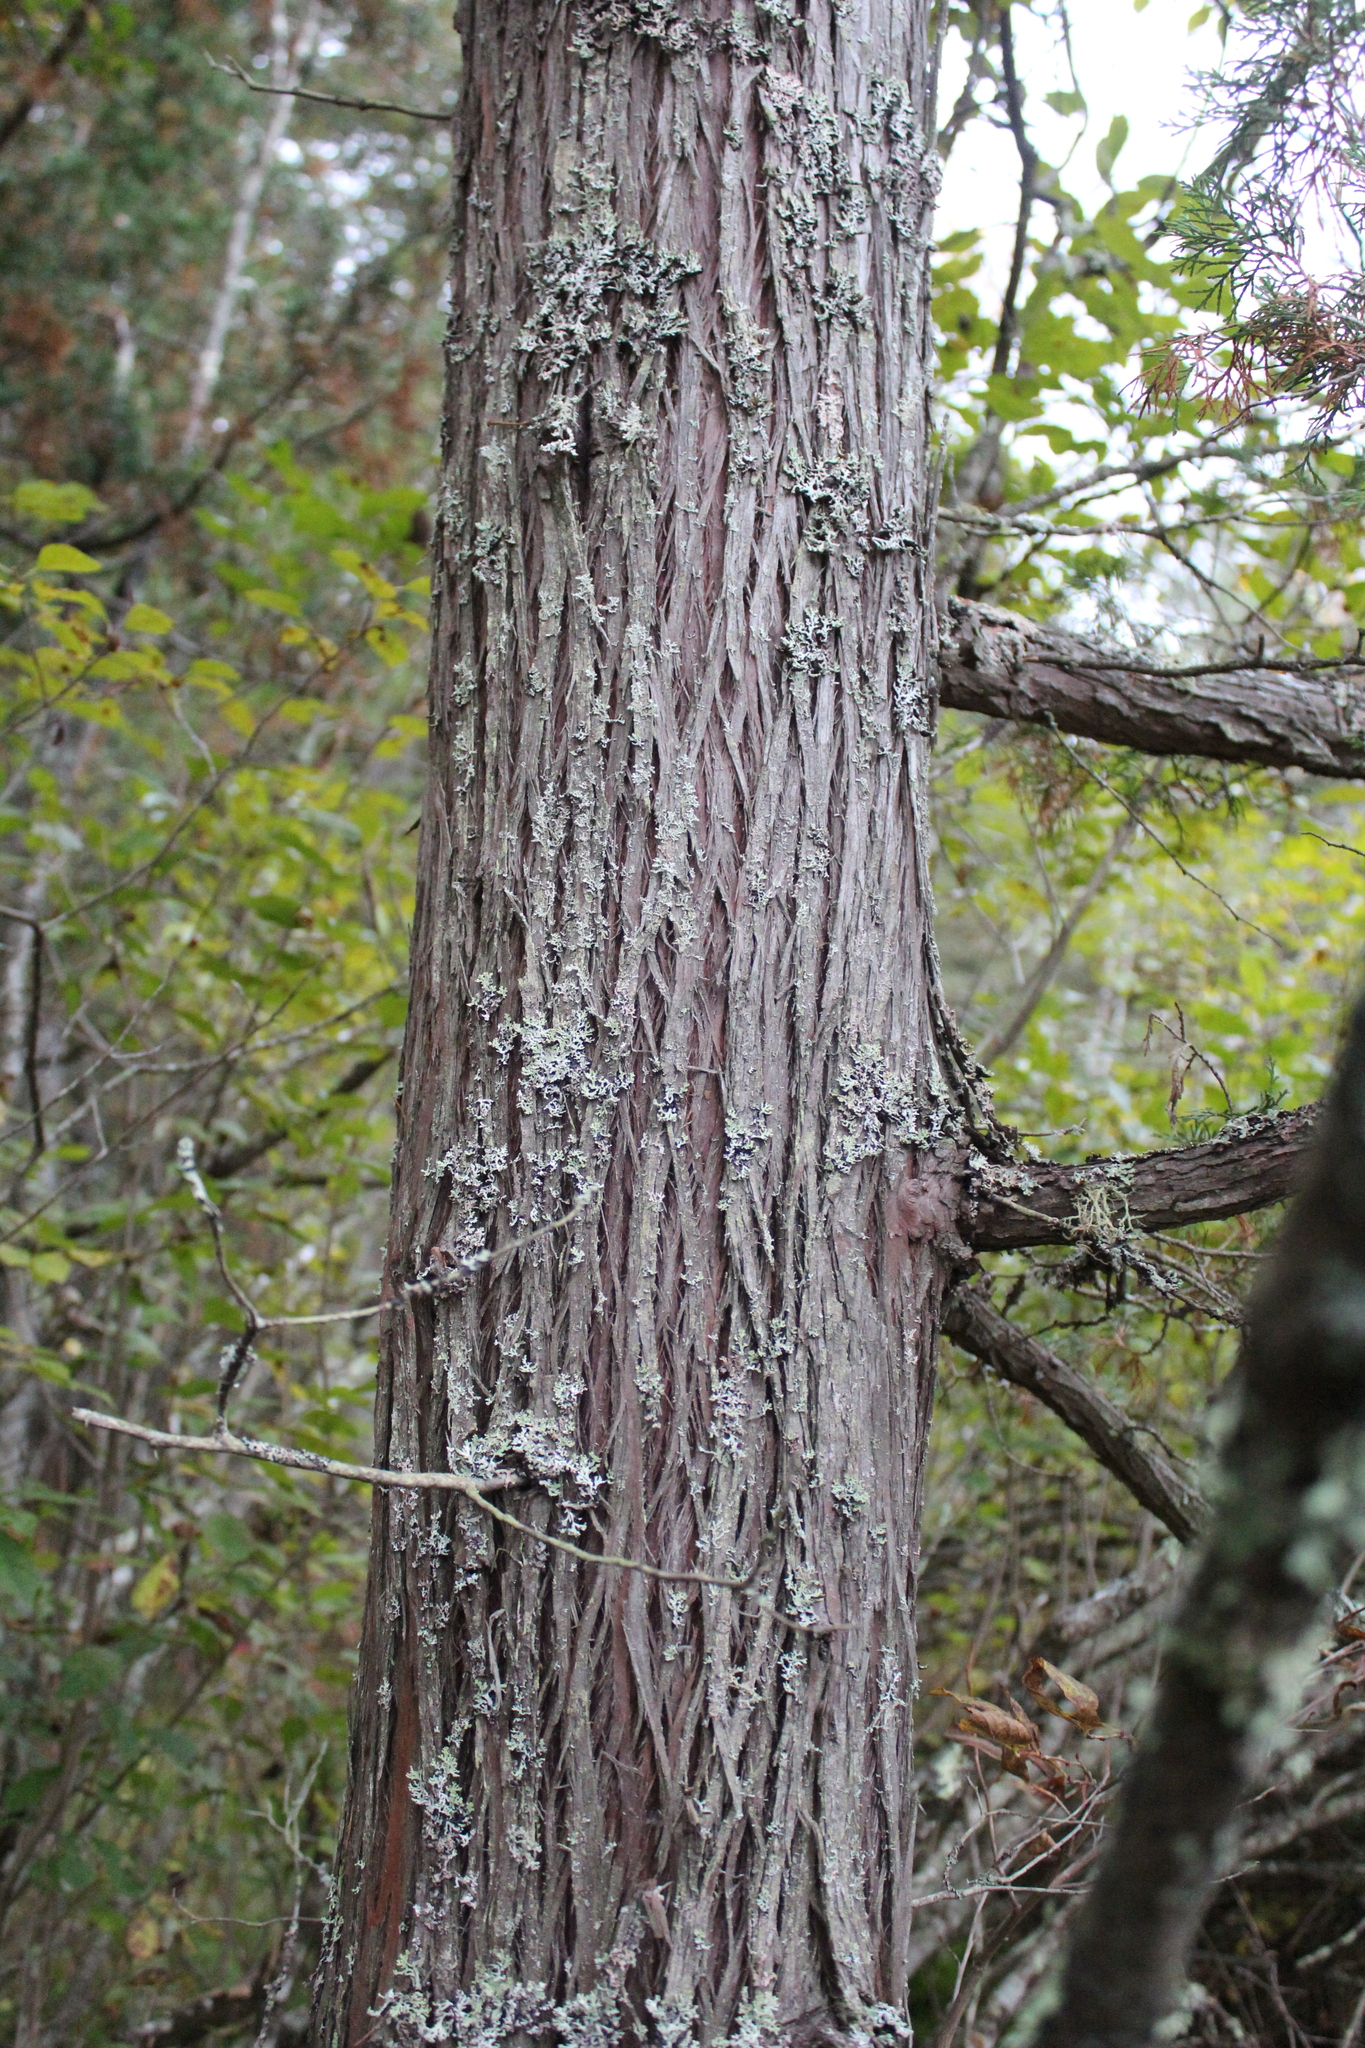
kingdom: Plantae
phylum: Tracheophyta
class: Pinopsida
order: Pinales
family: Cupressaceae
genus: Chamaecyparis
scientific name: Chamaecyparis thyoides
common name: Atlantic white cedar
